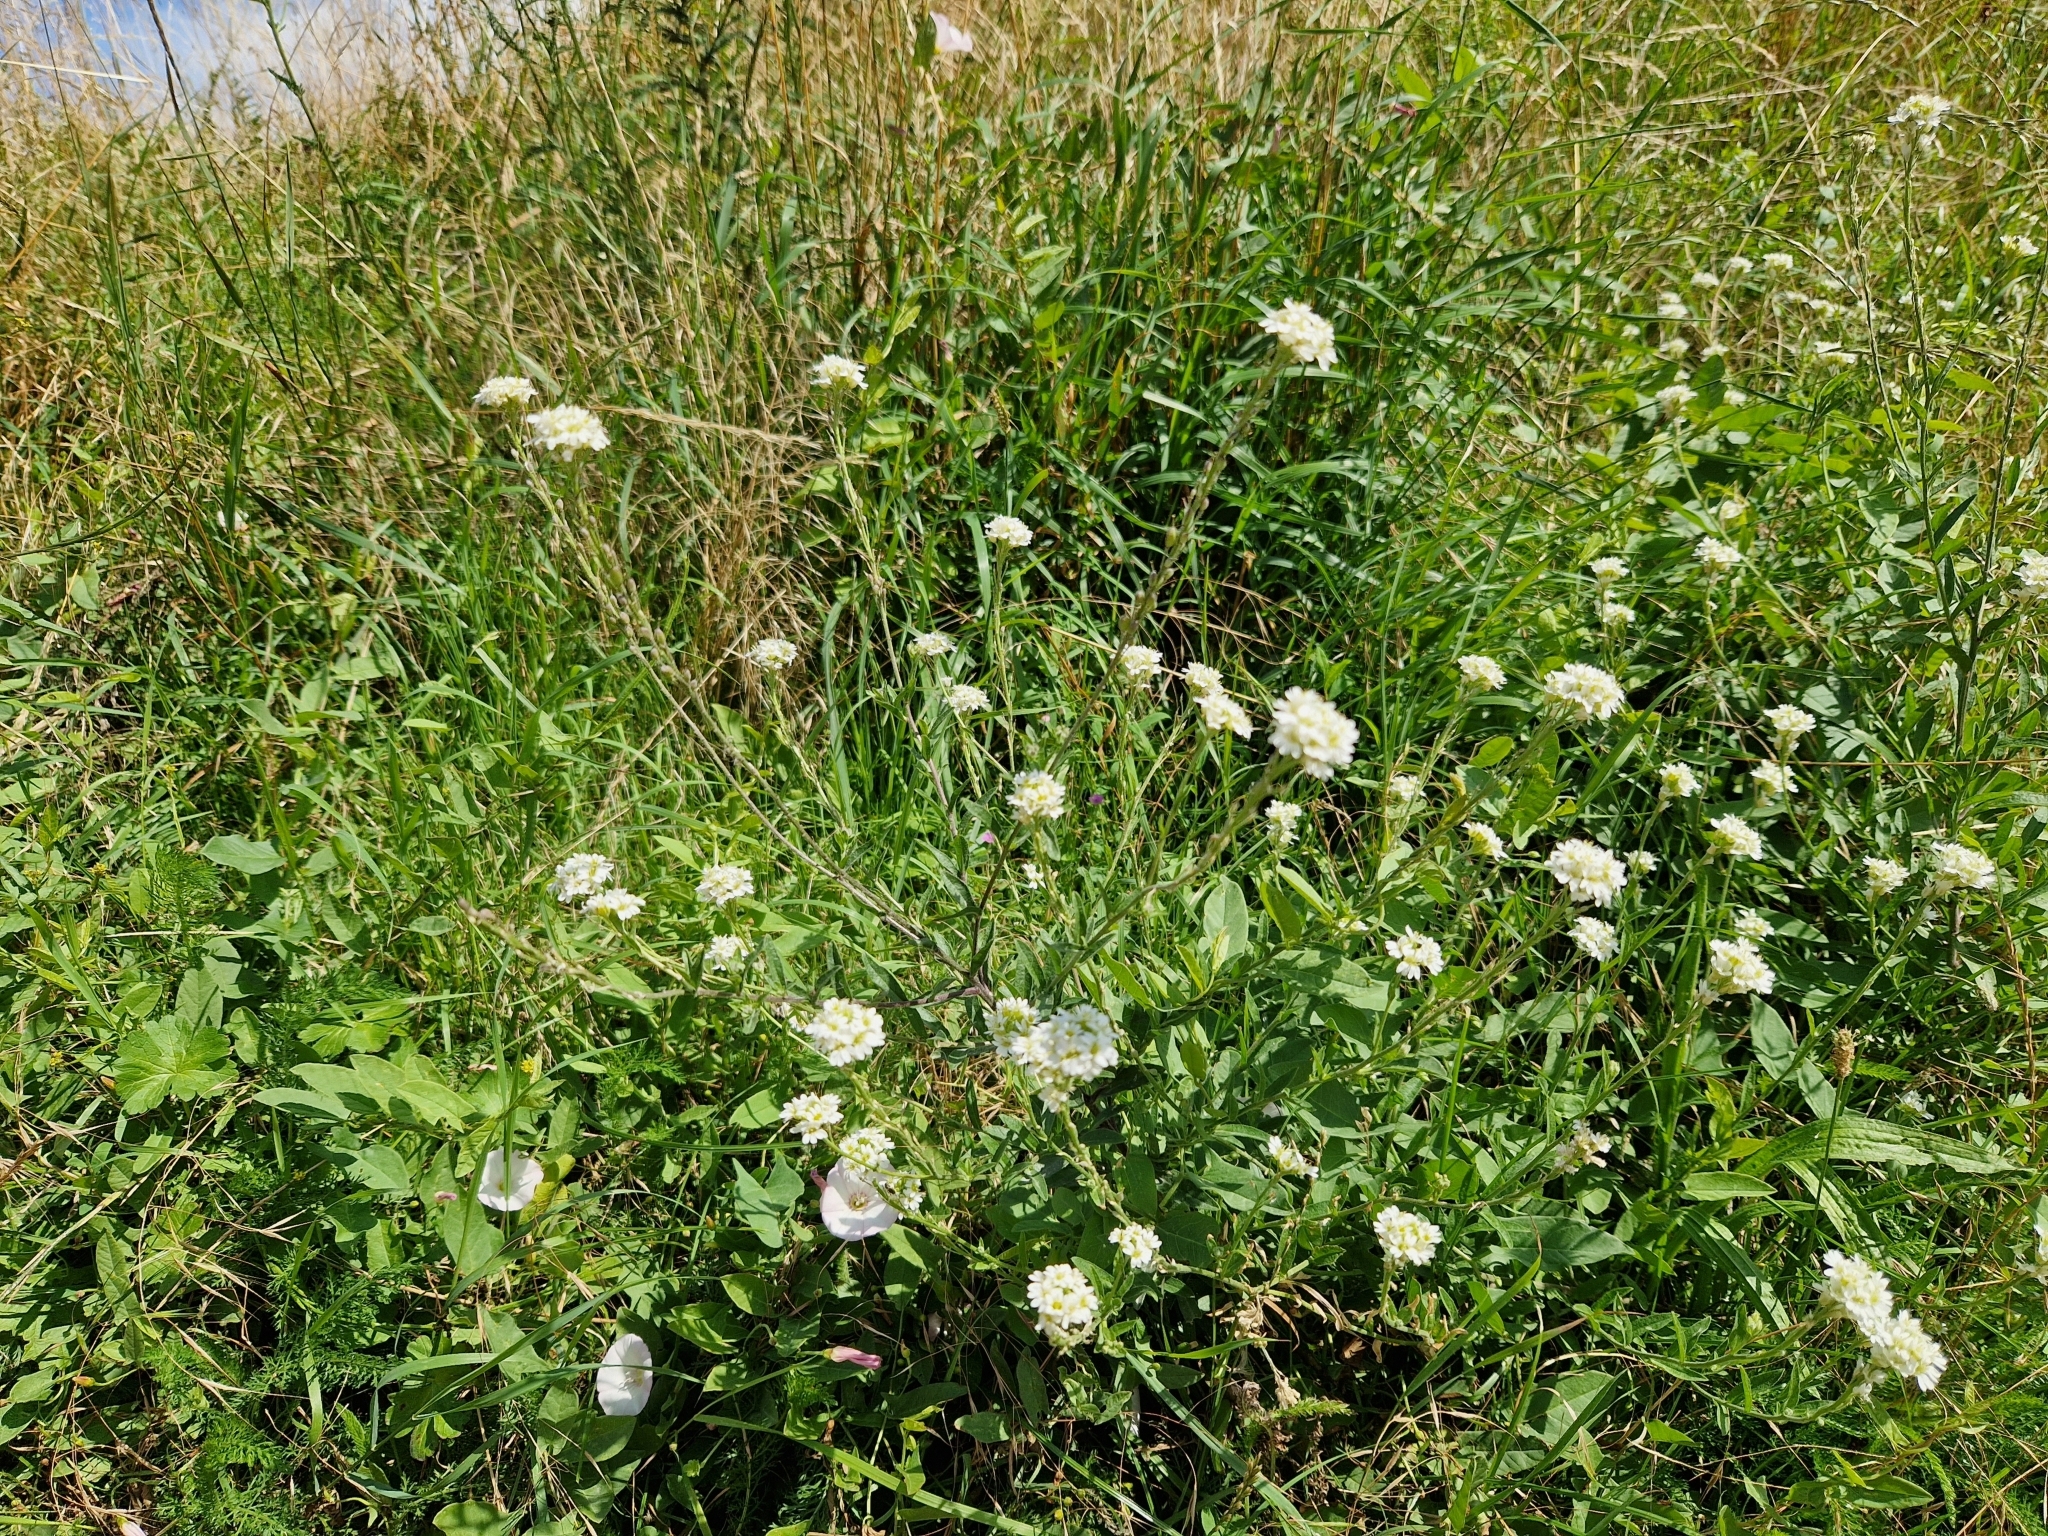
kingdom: Plantae
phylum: Tracheophyta
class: Magnoliopsida
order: Brassicales
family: Brassicaceae
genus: Berteroa
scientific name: Berteroa incana
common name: Hoary alison
